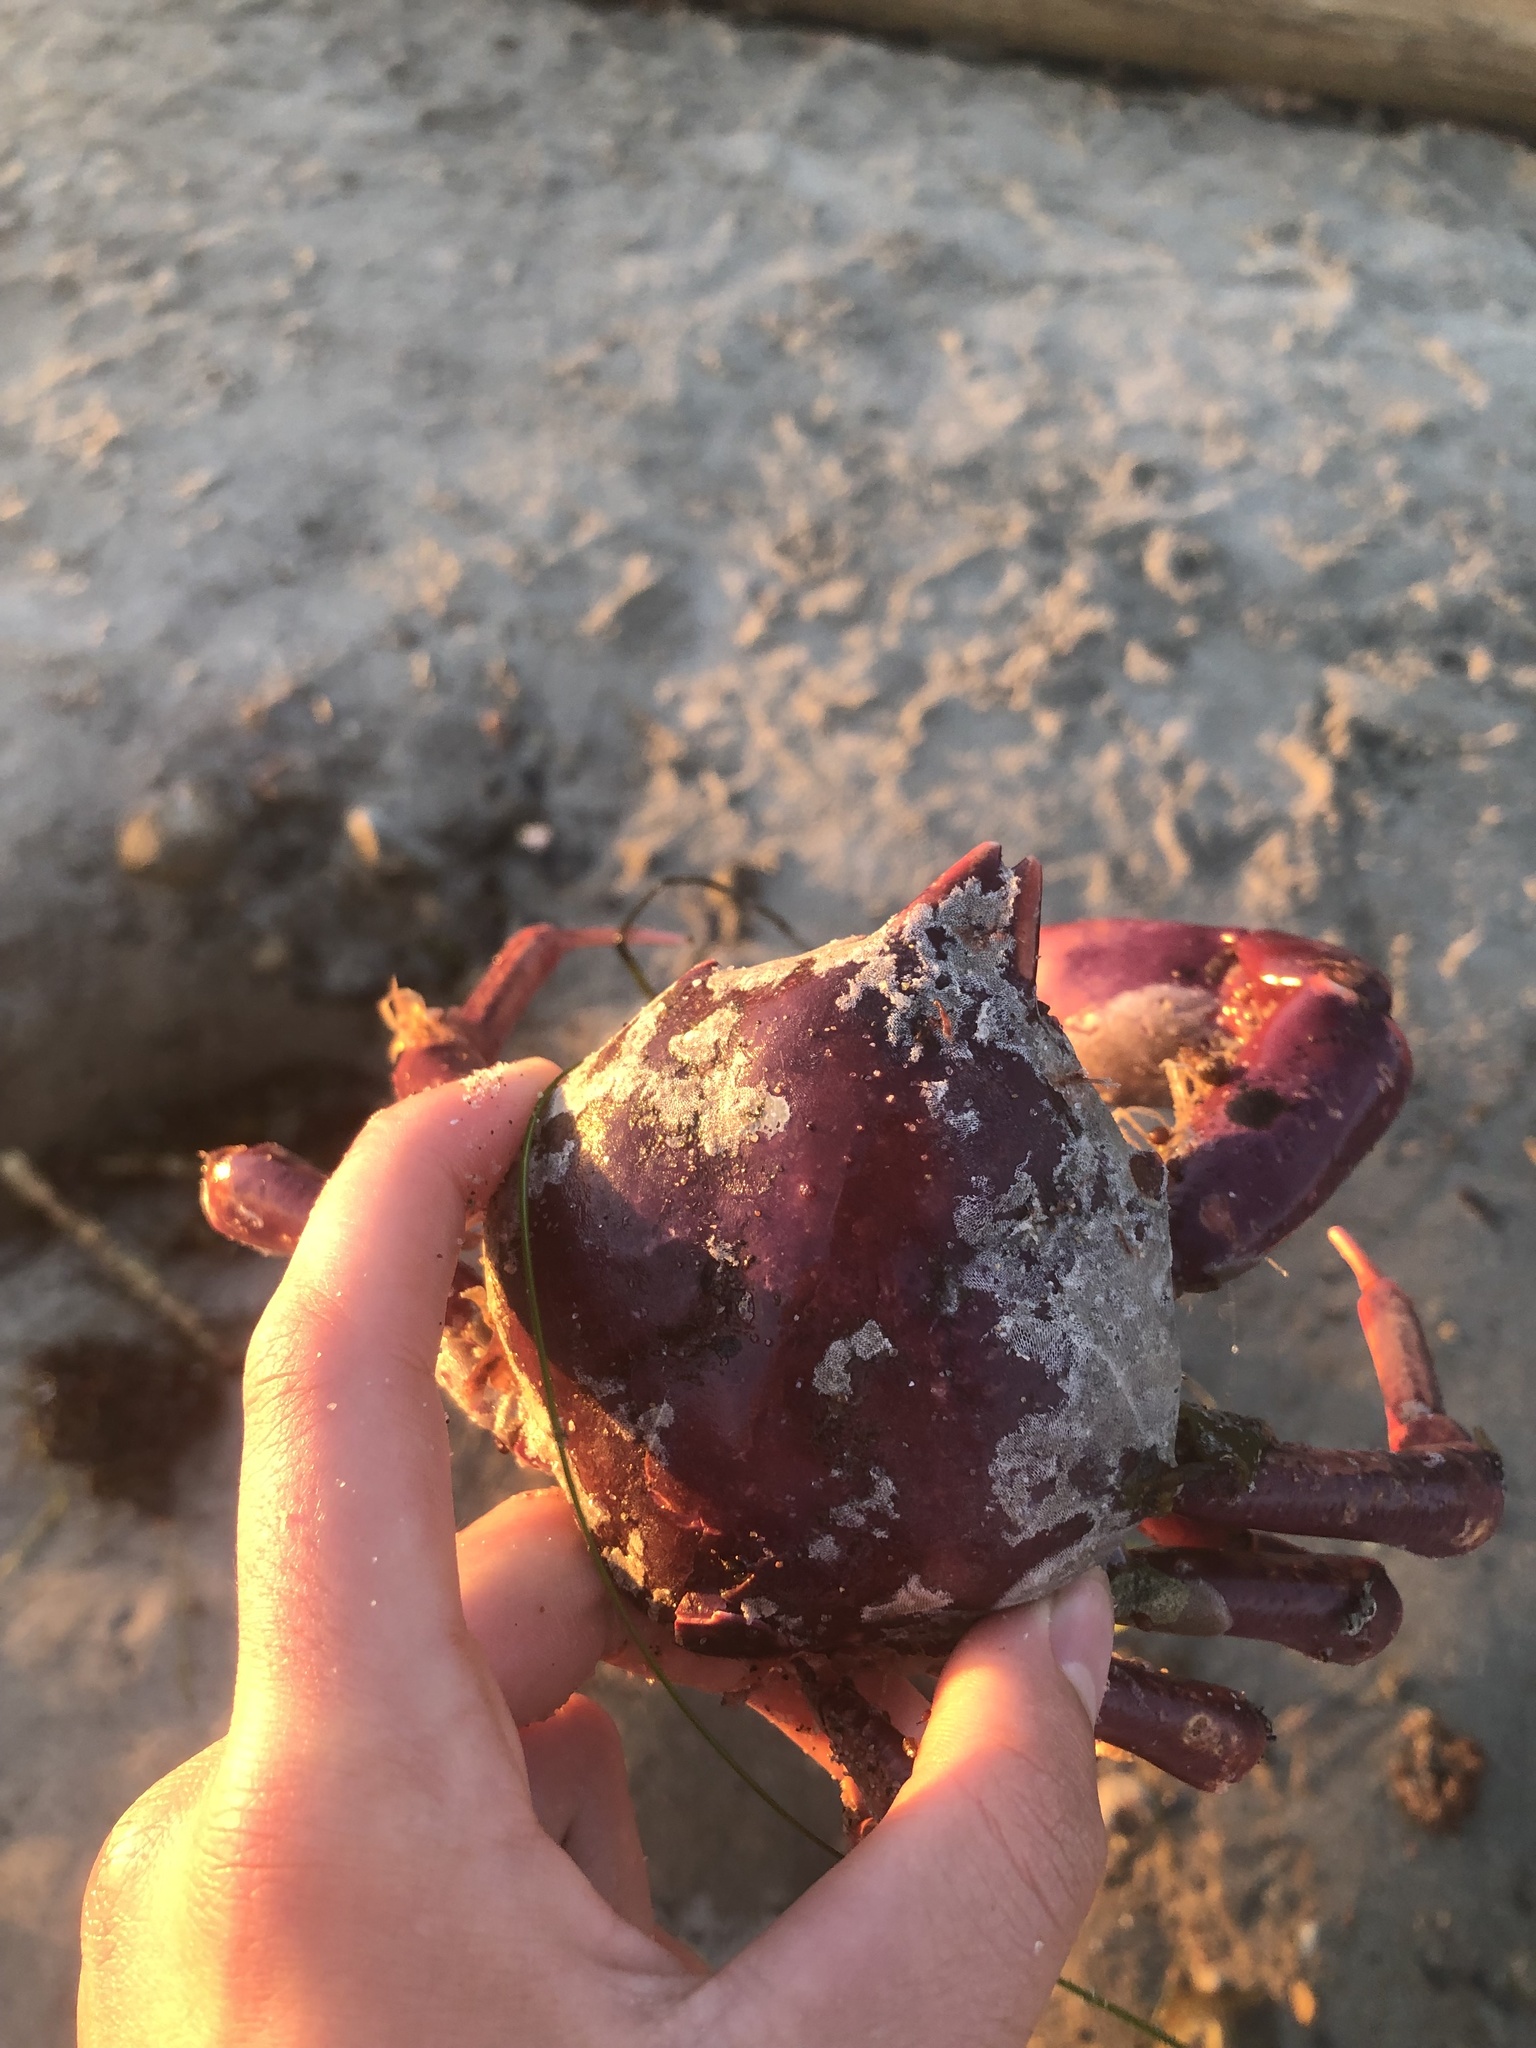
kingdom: Animalia
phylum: Arthropoda
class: Malacostraca
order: Decapoda
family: Epialtidae
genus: Taliepus
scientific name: Taliepus nuttallii
